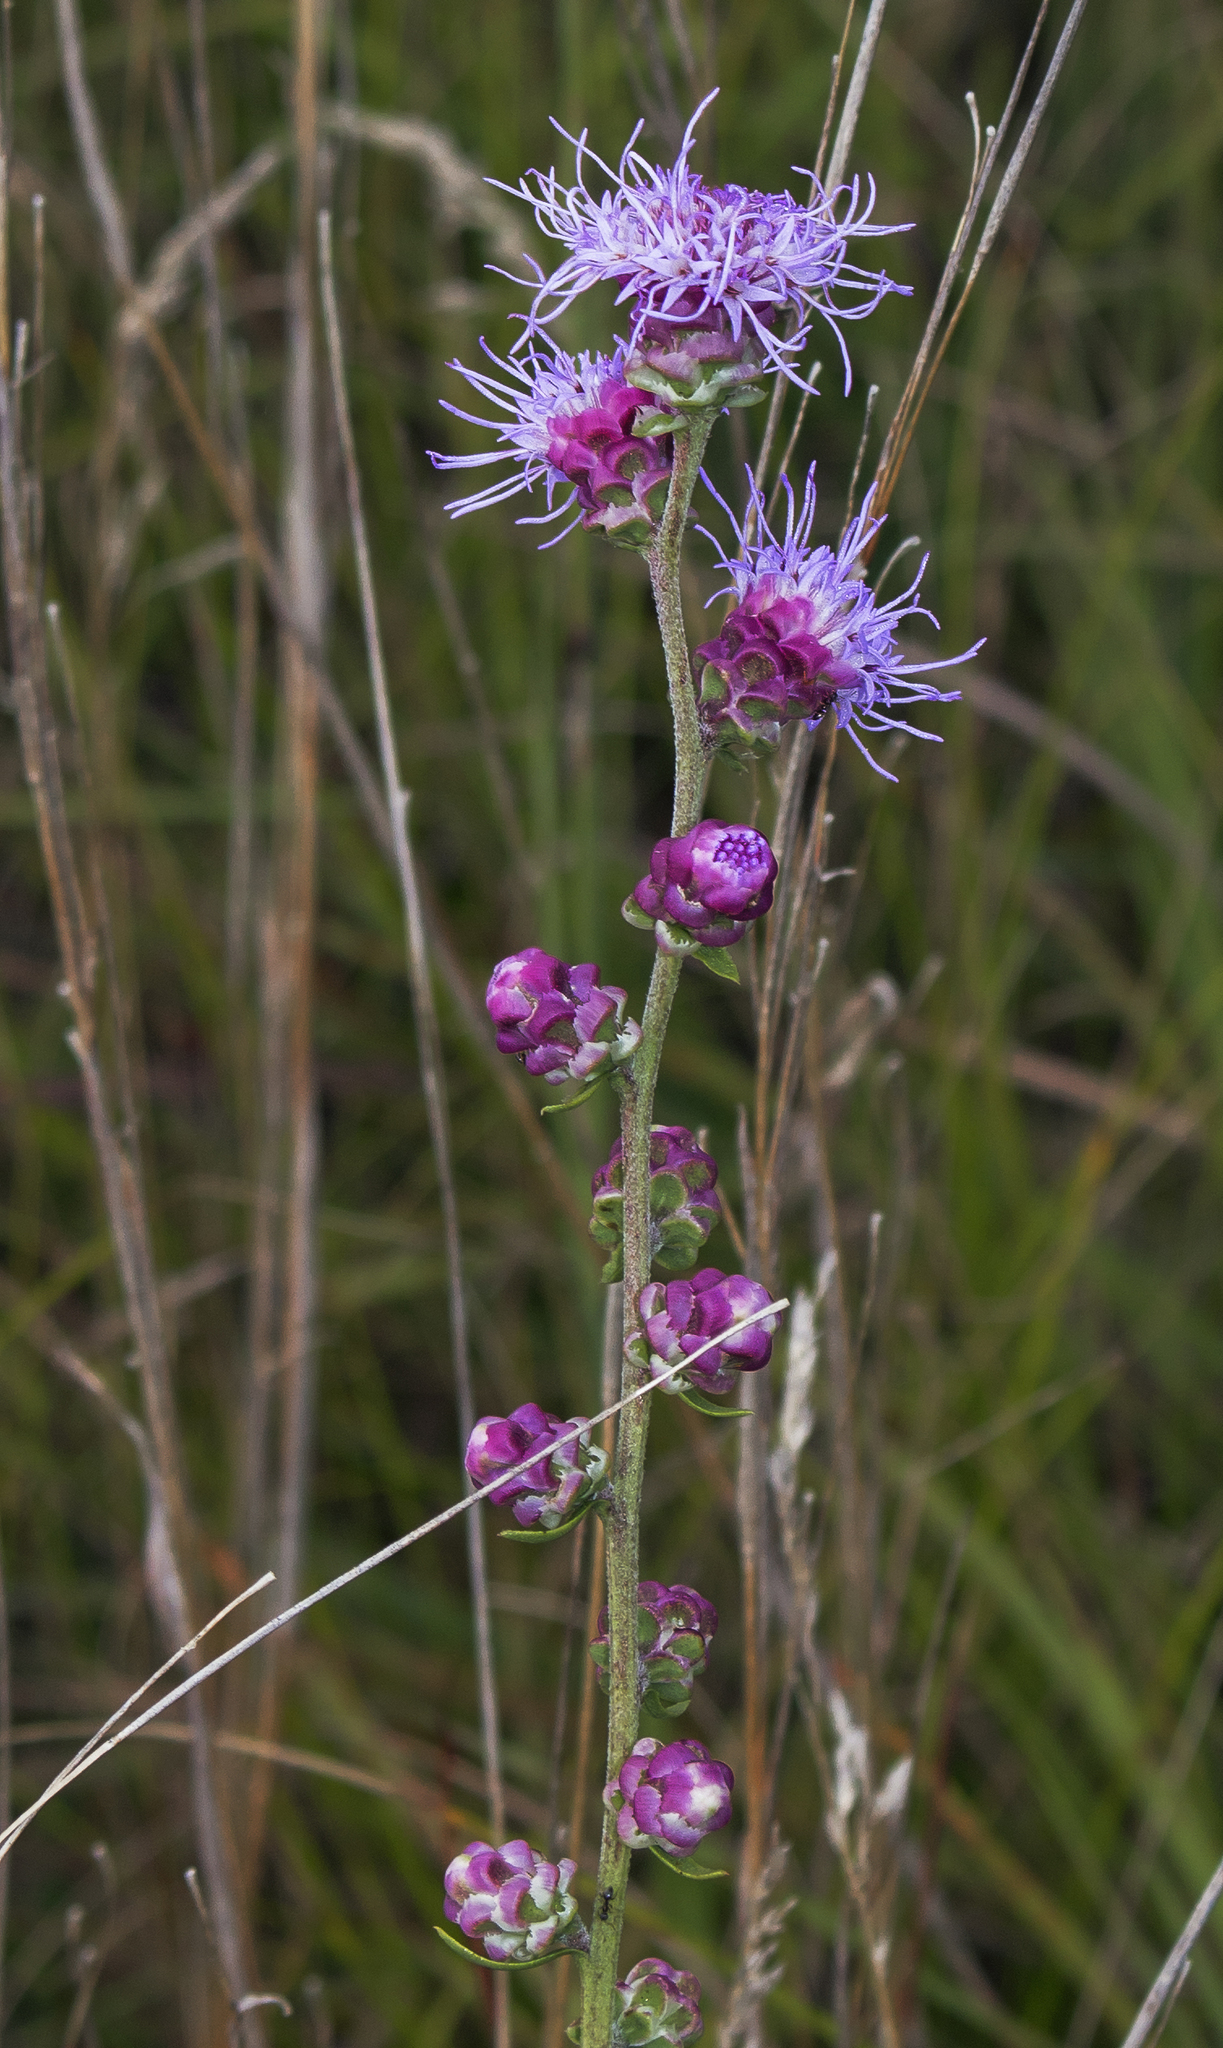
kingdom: Plantae
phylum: Tracheophyta
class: Magnoliopsida
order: Asterales
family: Asteraceae
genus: Liatris
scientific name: Liatris aspera
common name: Lacerate blazing-star
